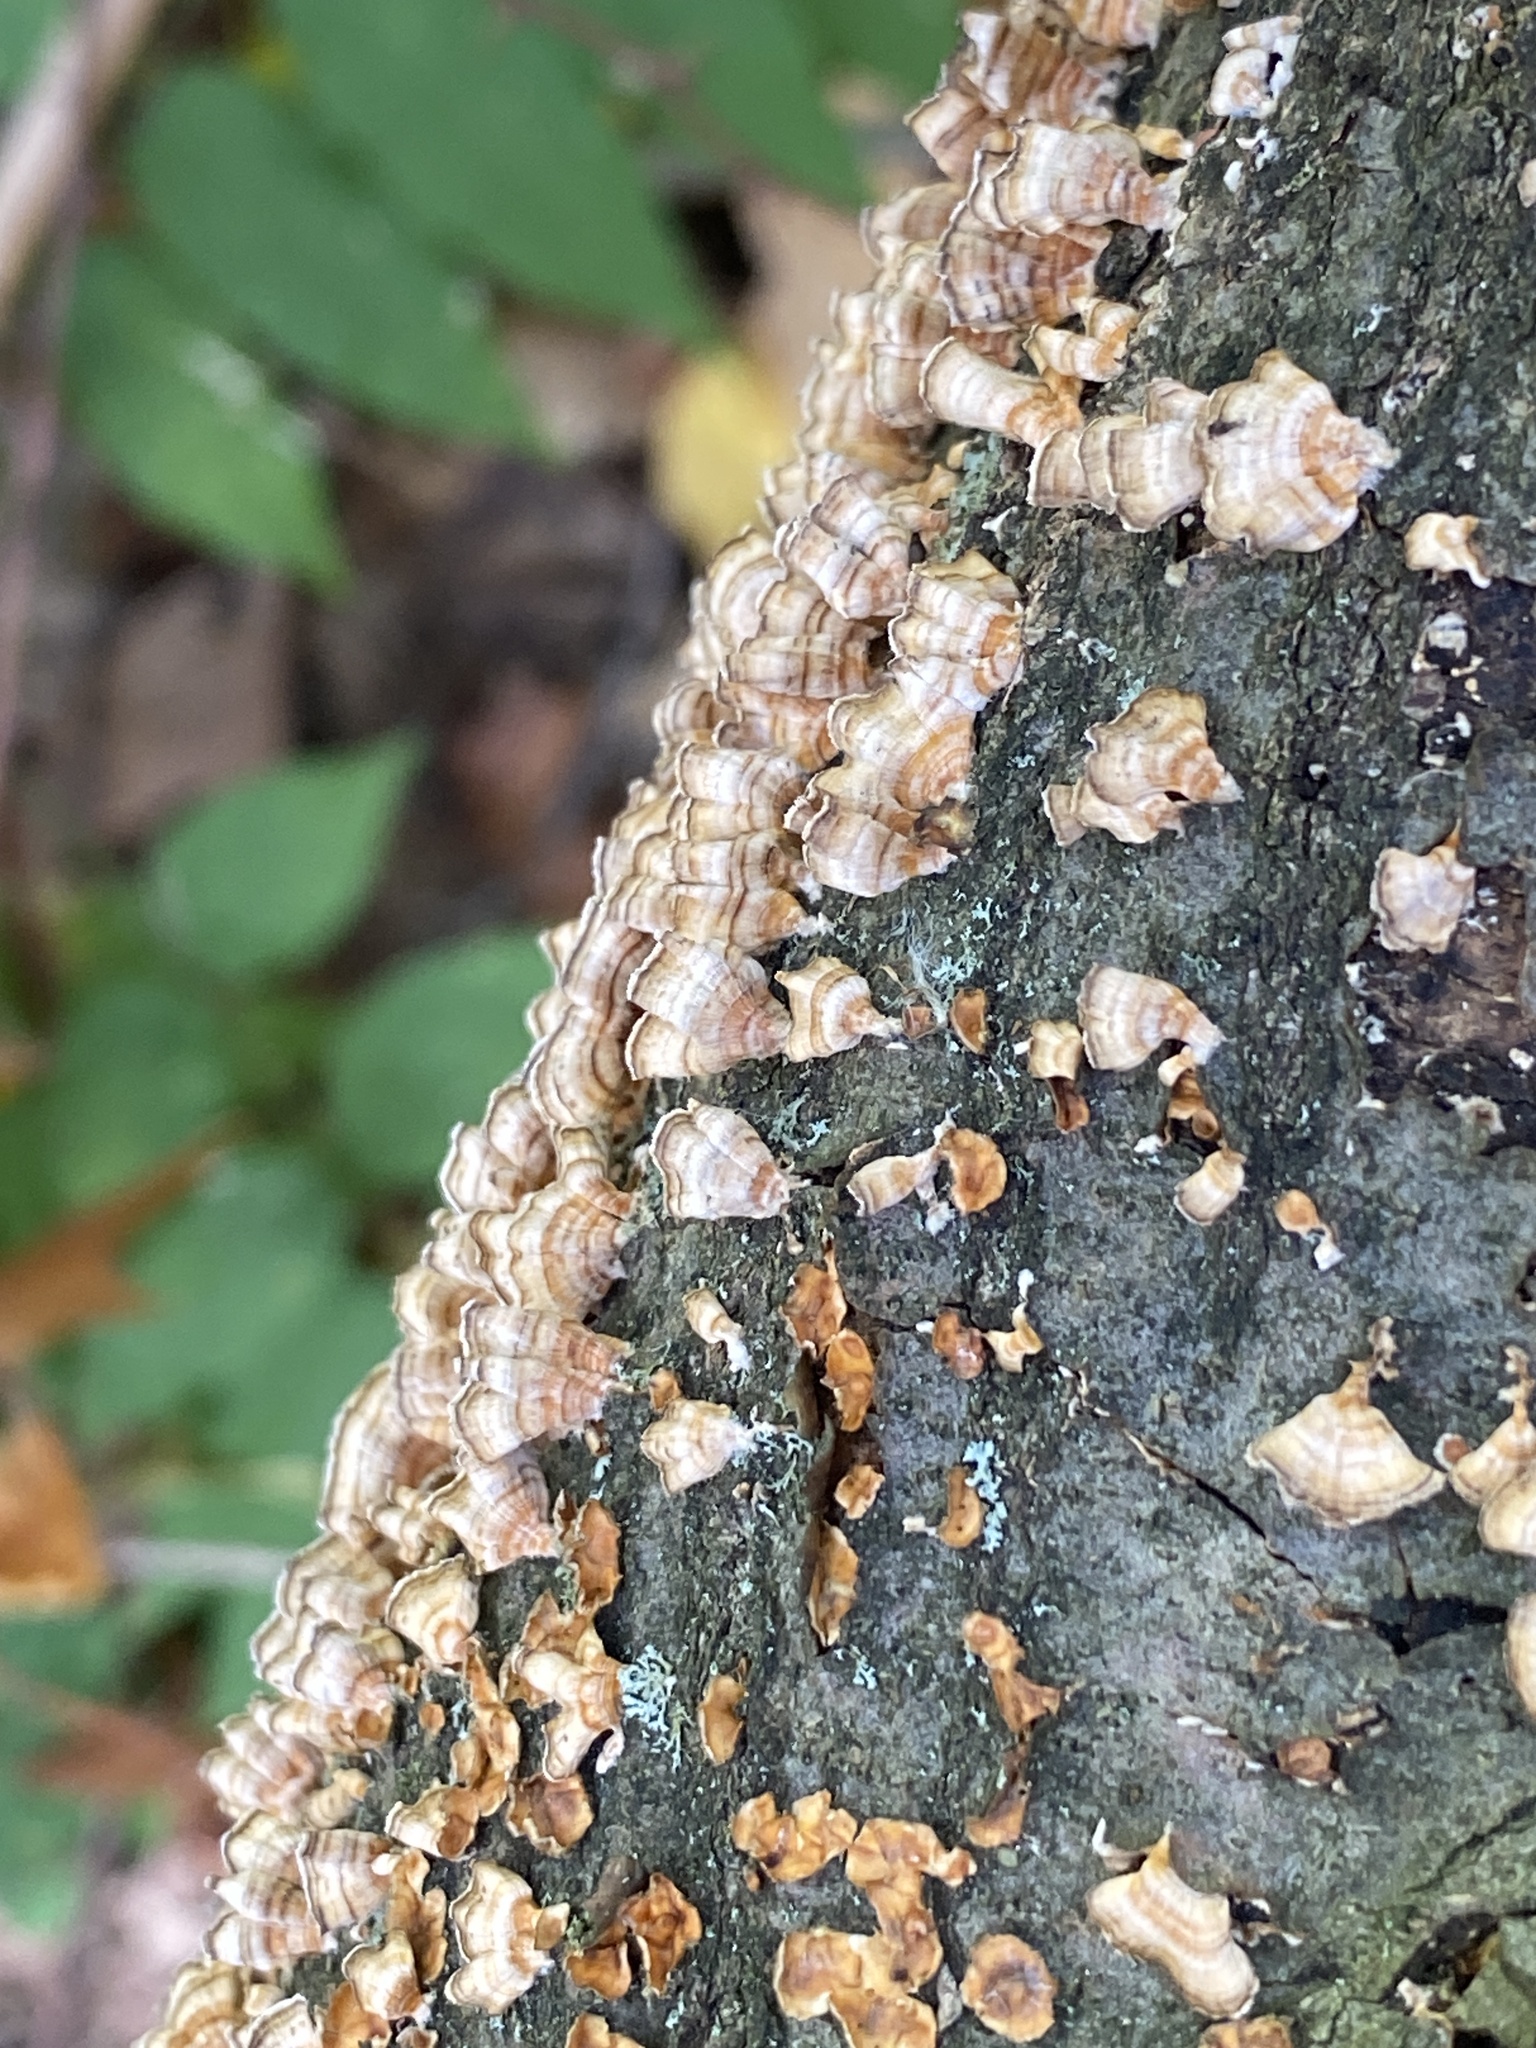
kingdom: Fungi
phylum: Basidiomycota
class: Agaricomycetes
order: Russulales
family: Stereaceae
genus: Stereum
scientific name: Stereum complicatum
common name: Crowded parchment
